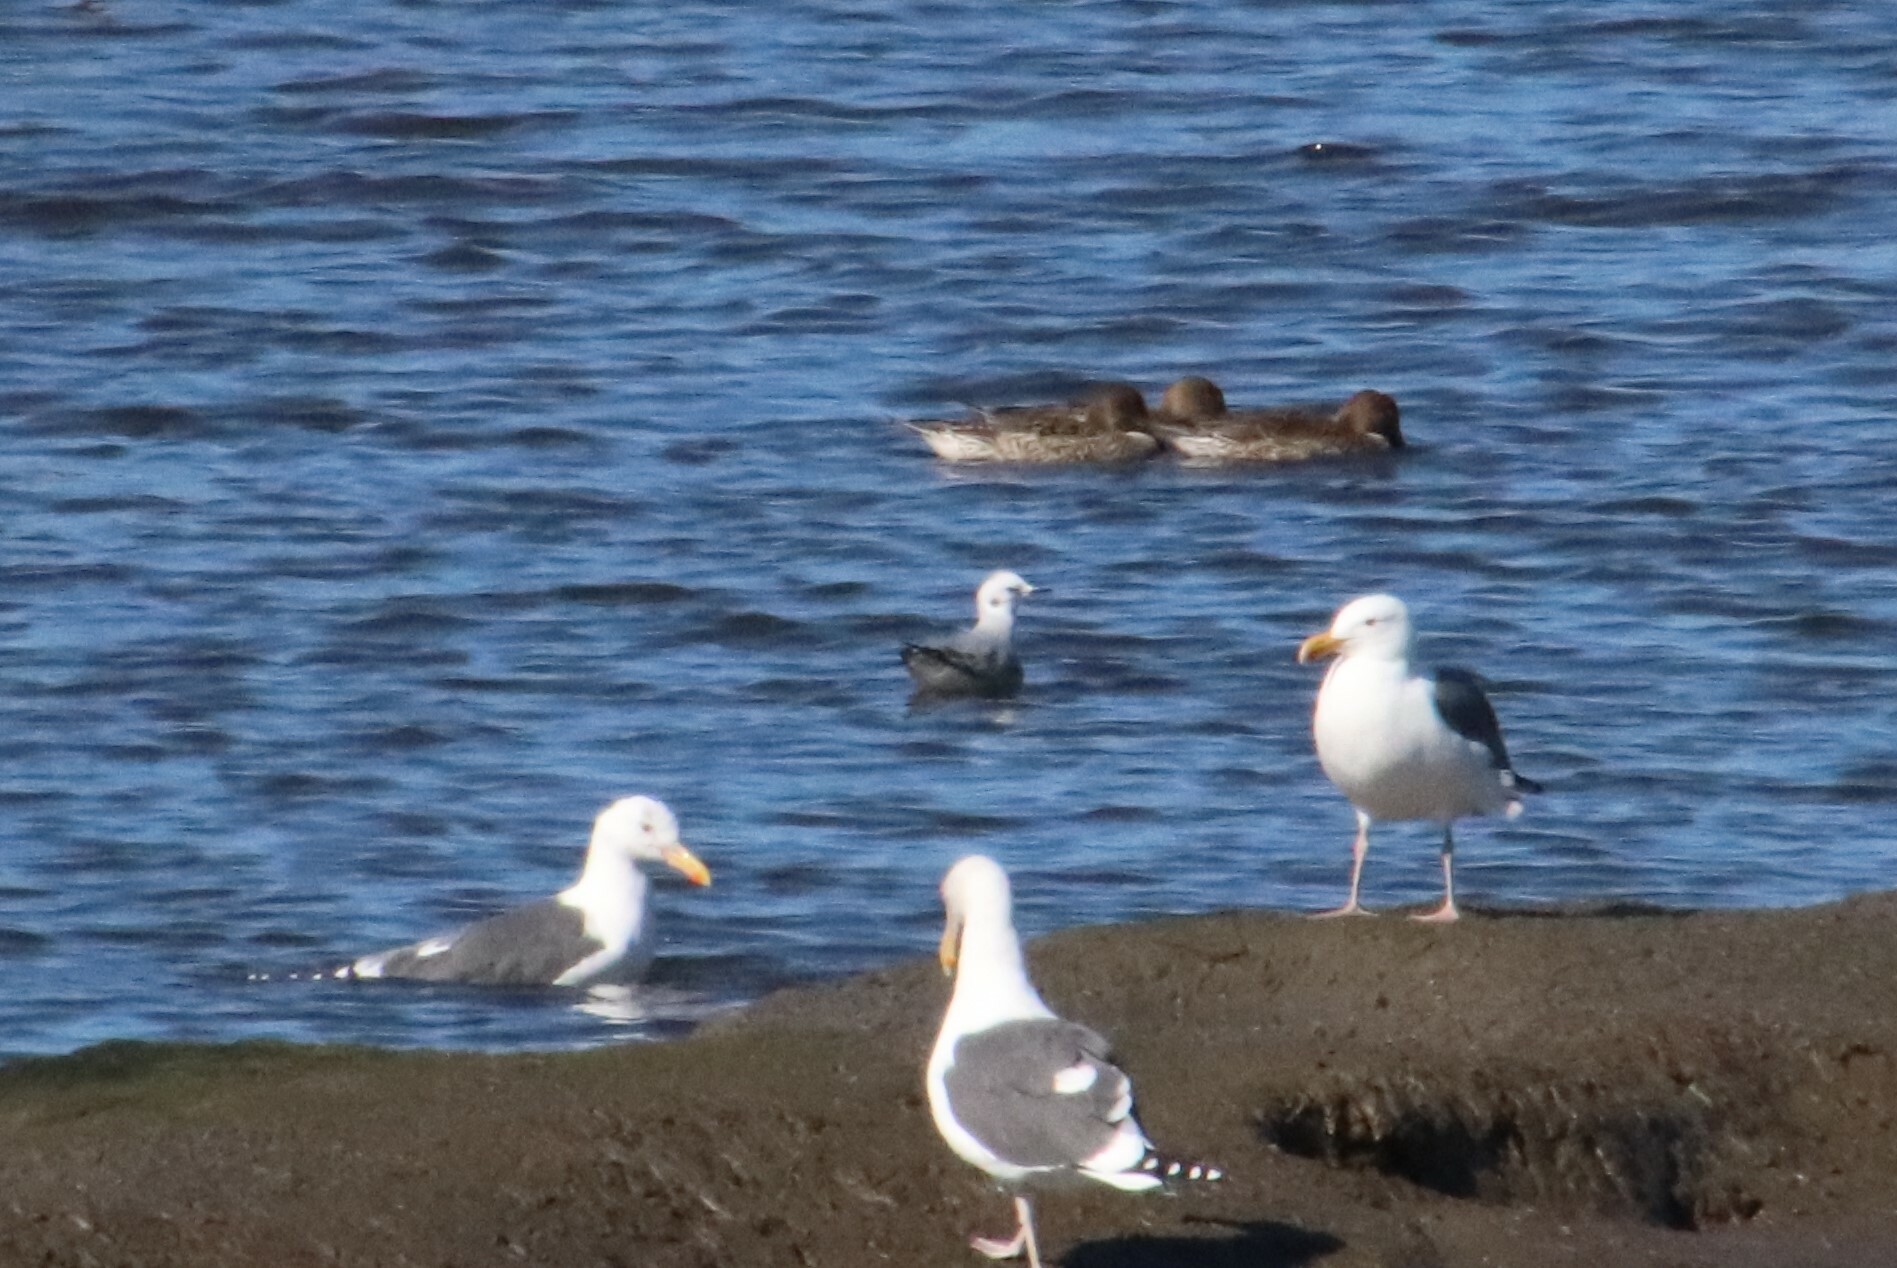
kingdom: Animalia
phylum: Chordata
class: Aves
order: Charadriiformes
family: Laridae
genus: Chroicocephalus
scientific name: Chroicocephalus philadelphia
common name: Bonaparte's gull
